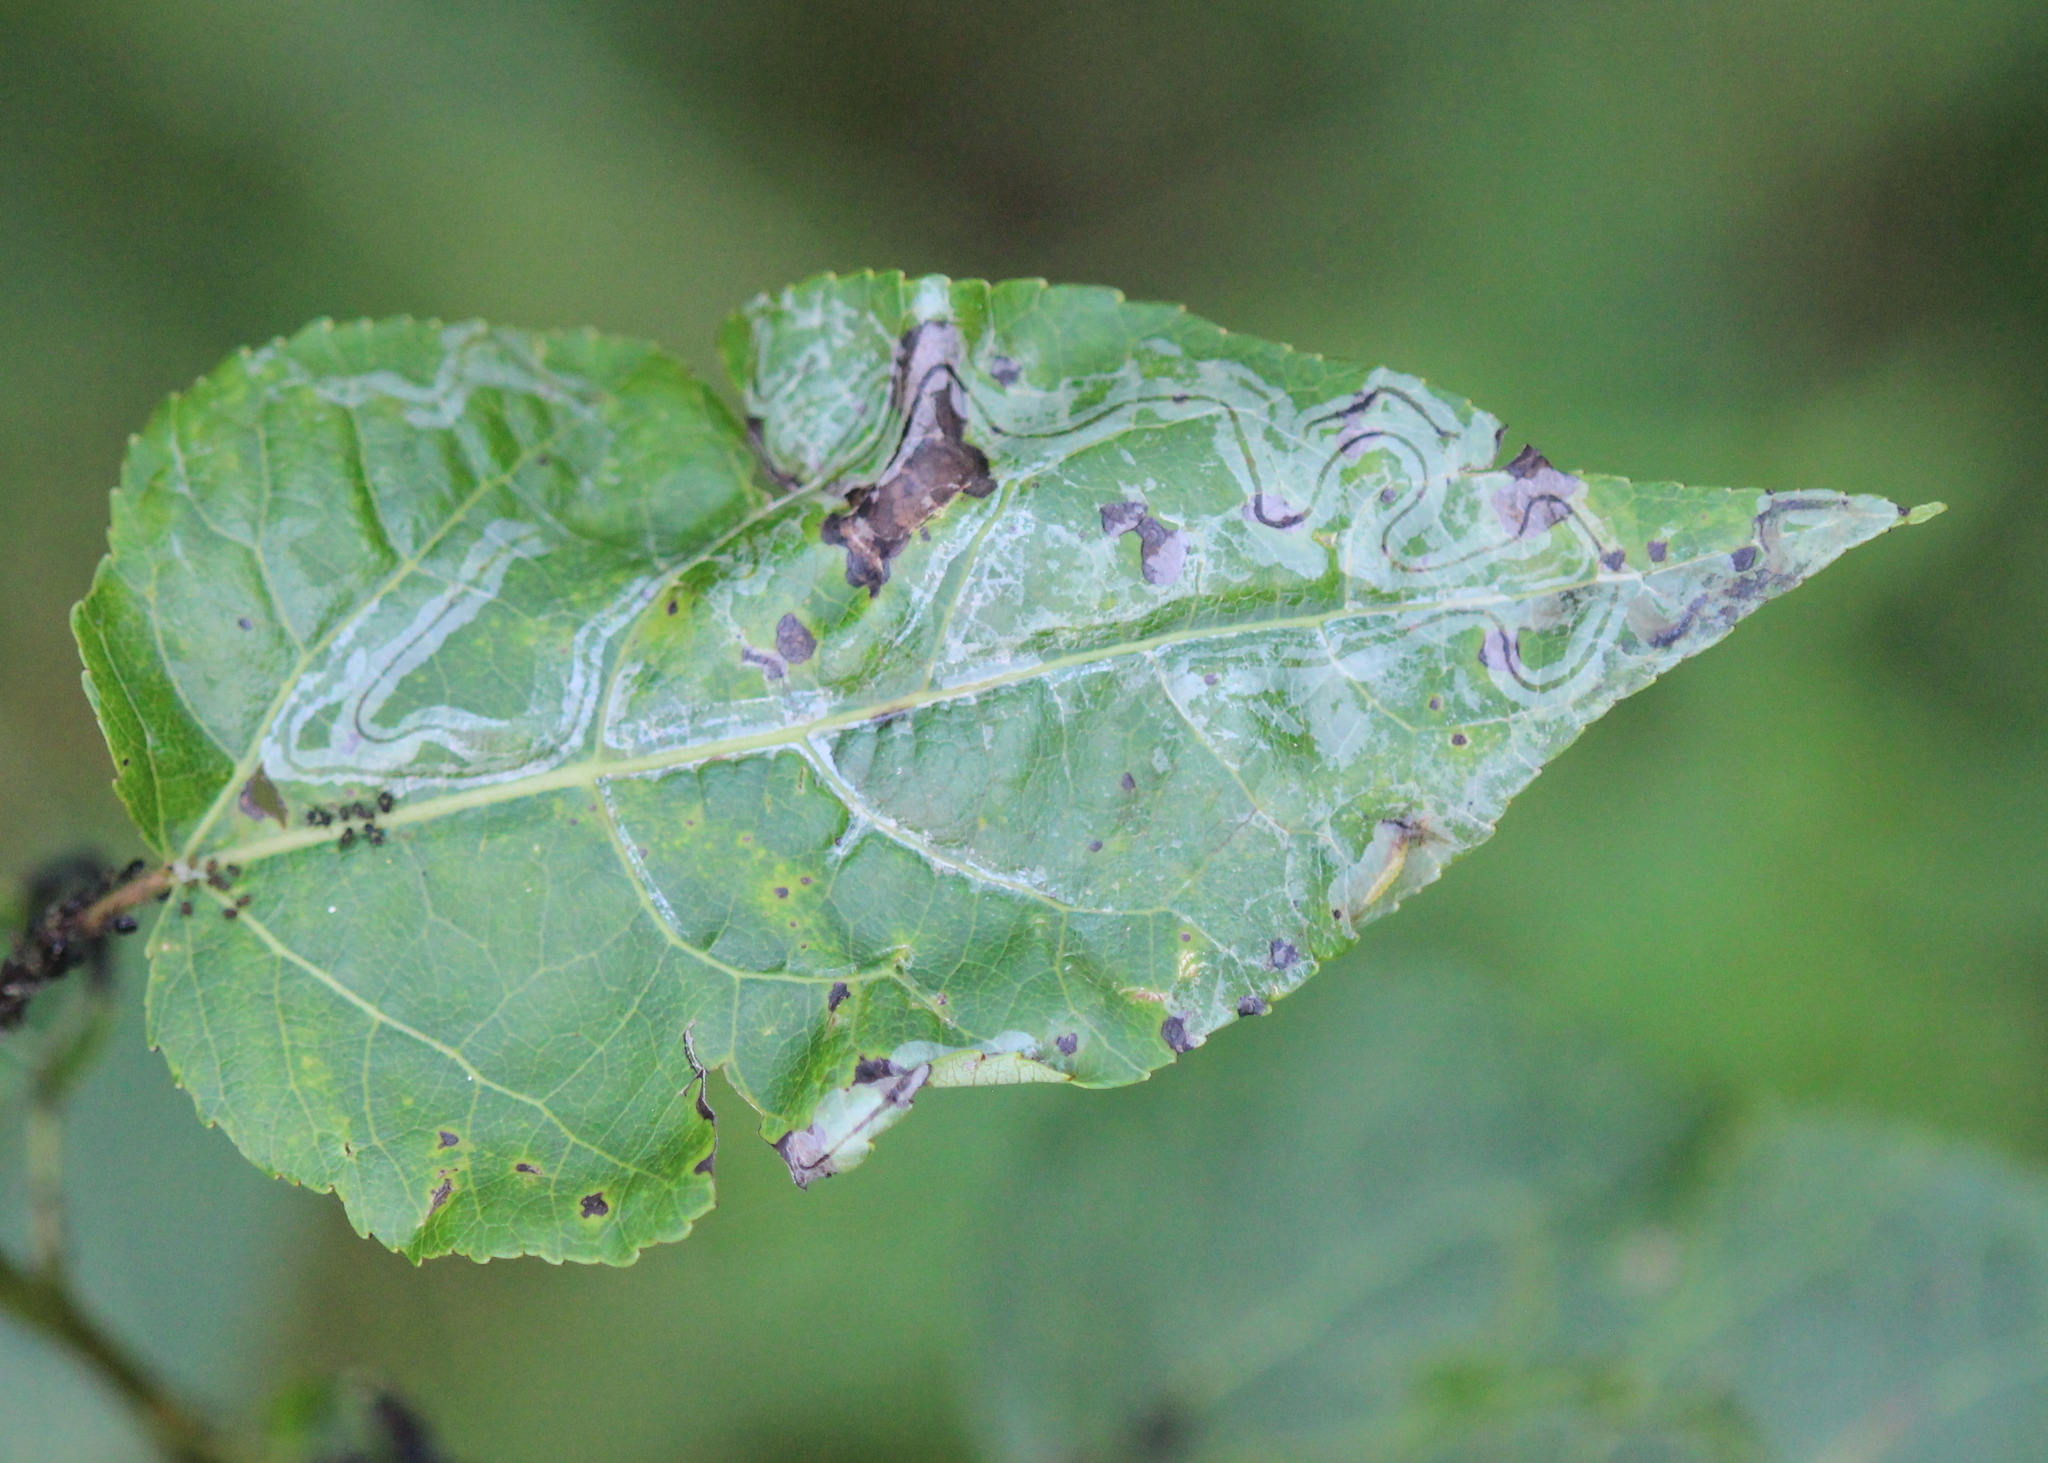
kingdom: Animalia
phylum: Arthropoda
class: Insecta
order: Lepidoptera
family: Gracillariidae
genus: Phyllocnistis
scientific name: Phyllocnistis populiella
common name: Aspen serpentine leafminer moth
